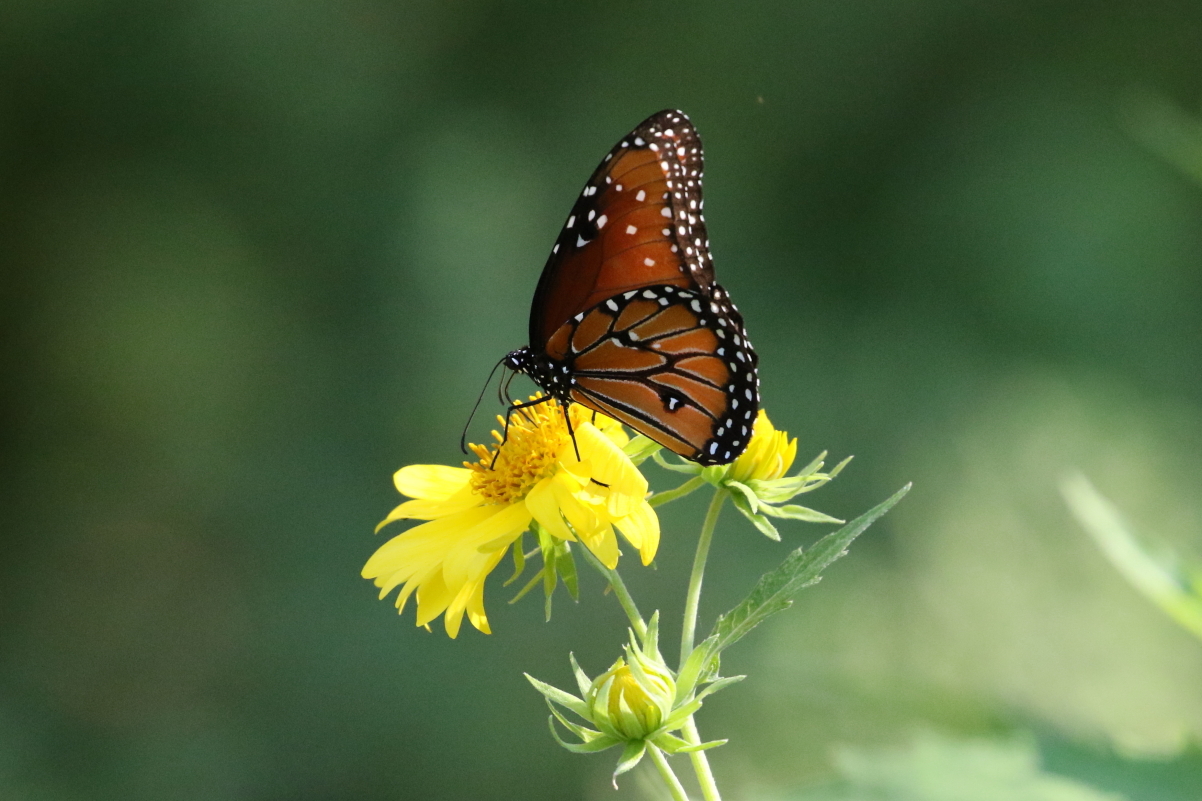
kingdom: Animalia
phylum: Arthropoda
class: Insecta
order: Lepidoptera
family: Nymphalidae
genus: Danaus
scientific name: Danaus gilippus
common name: Queen
